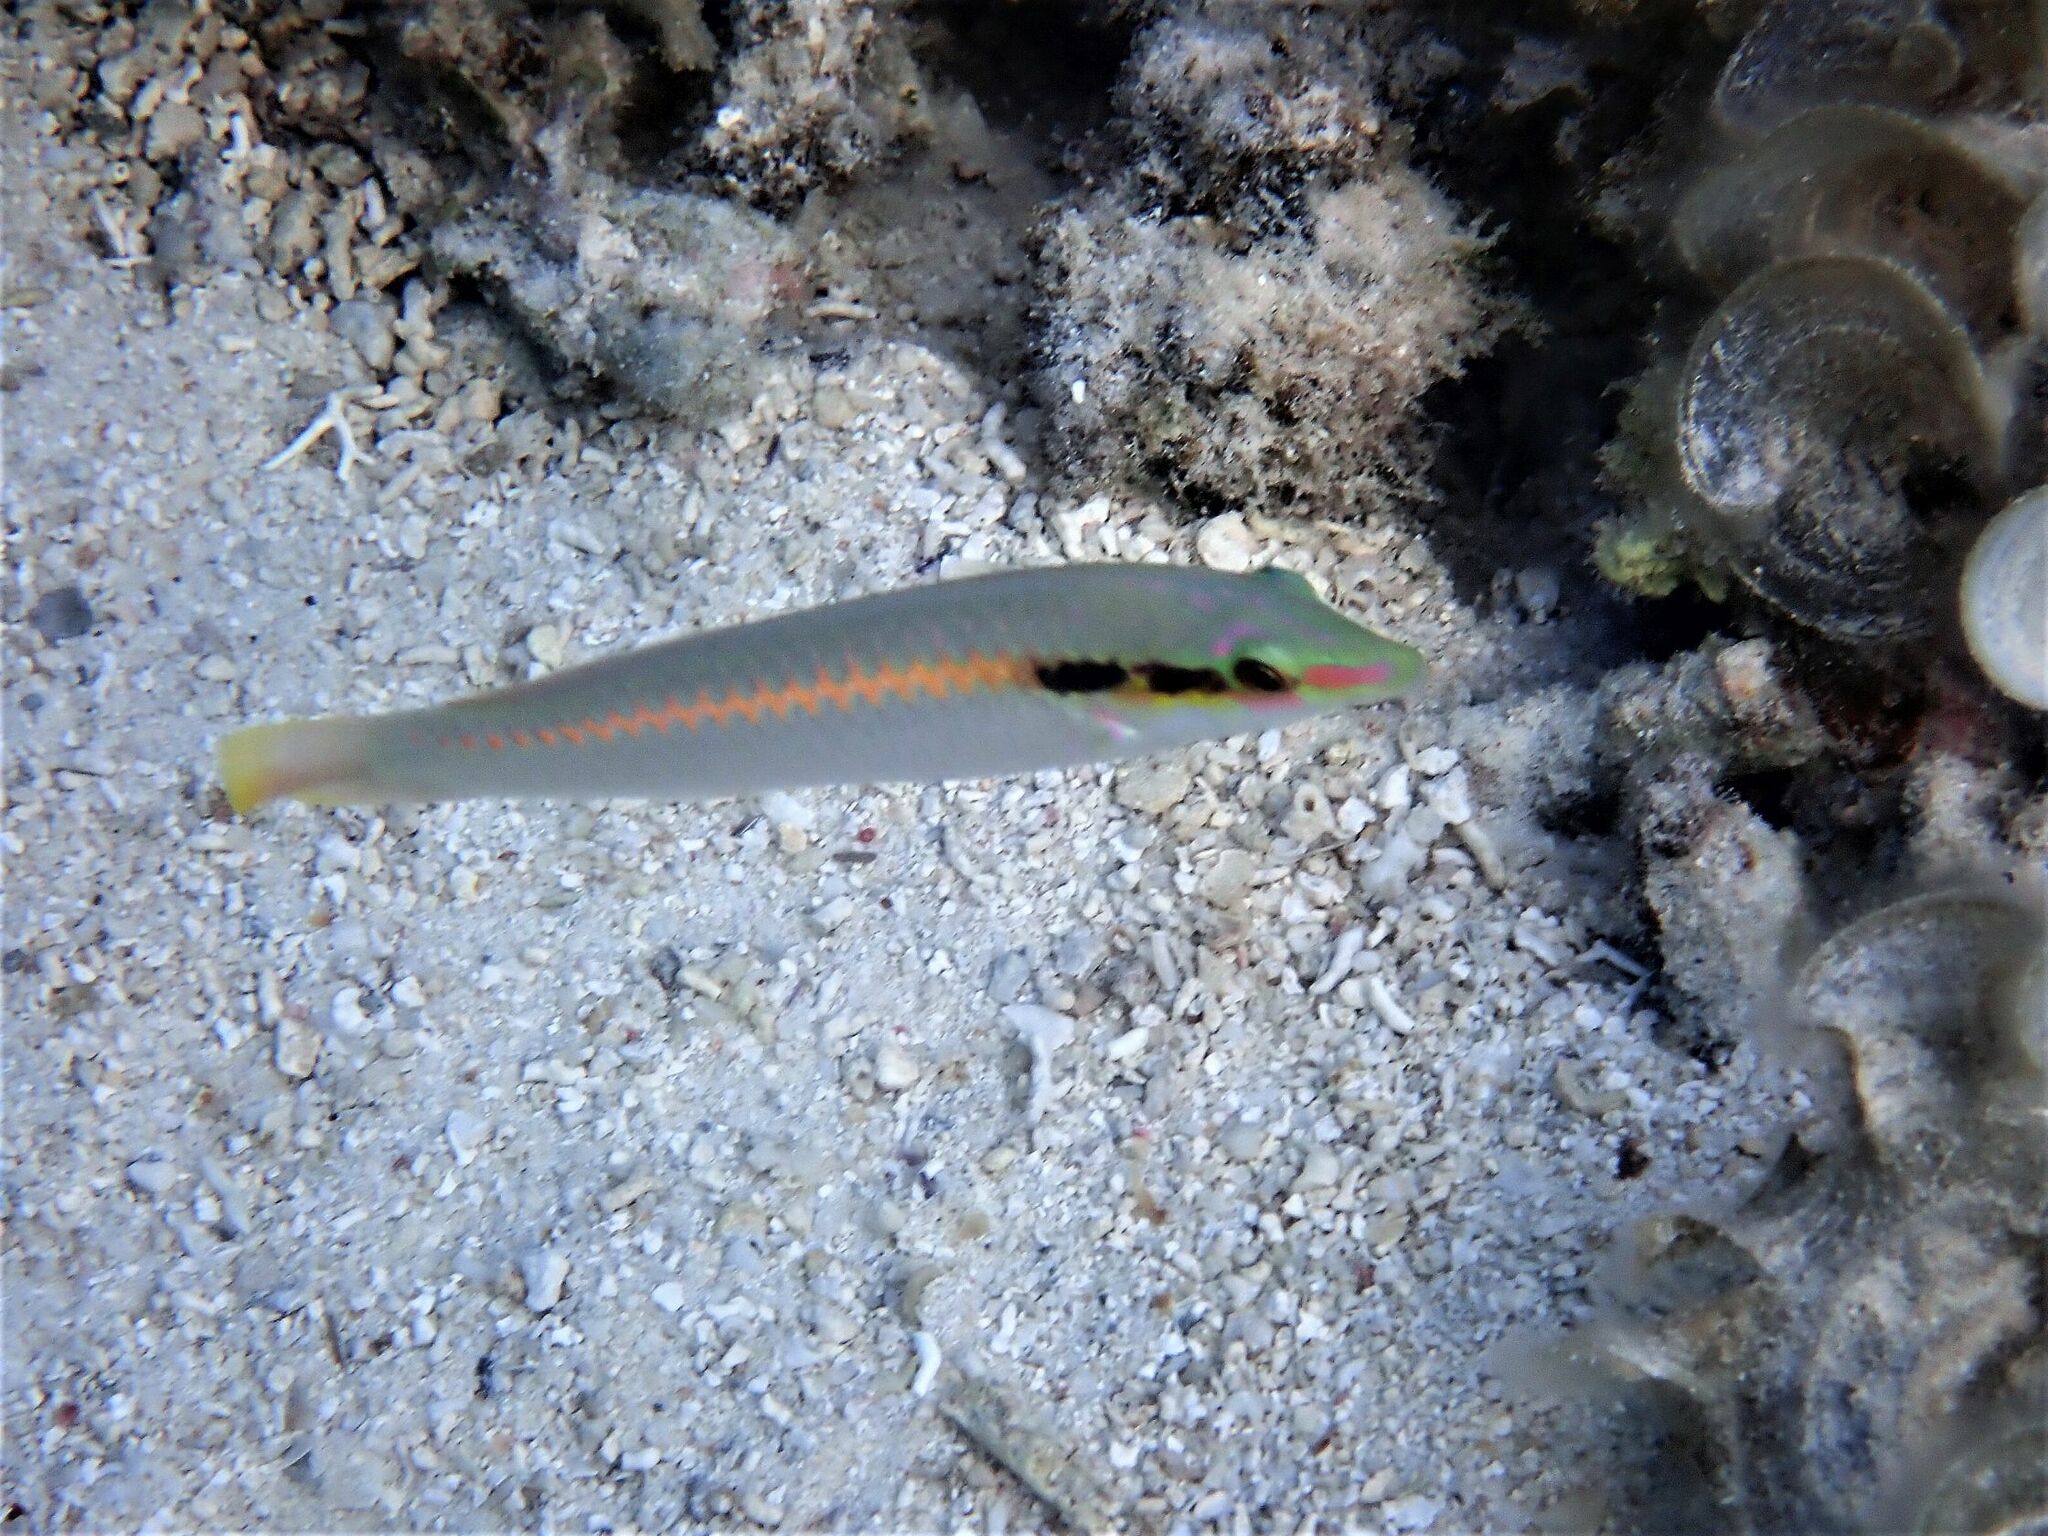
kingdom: Animalia
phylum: Chordata
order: Perciformes
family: Labridae
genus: Halichoeres
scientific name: Halichoeres scapularis
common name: Brownbanded wrasse
